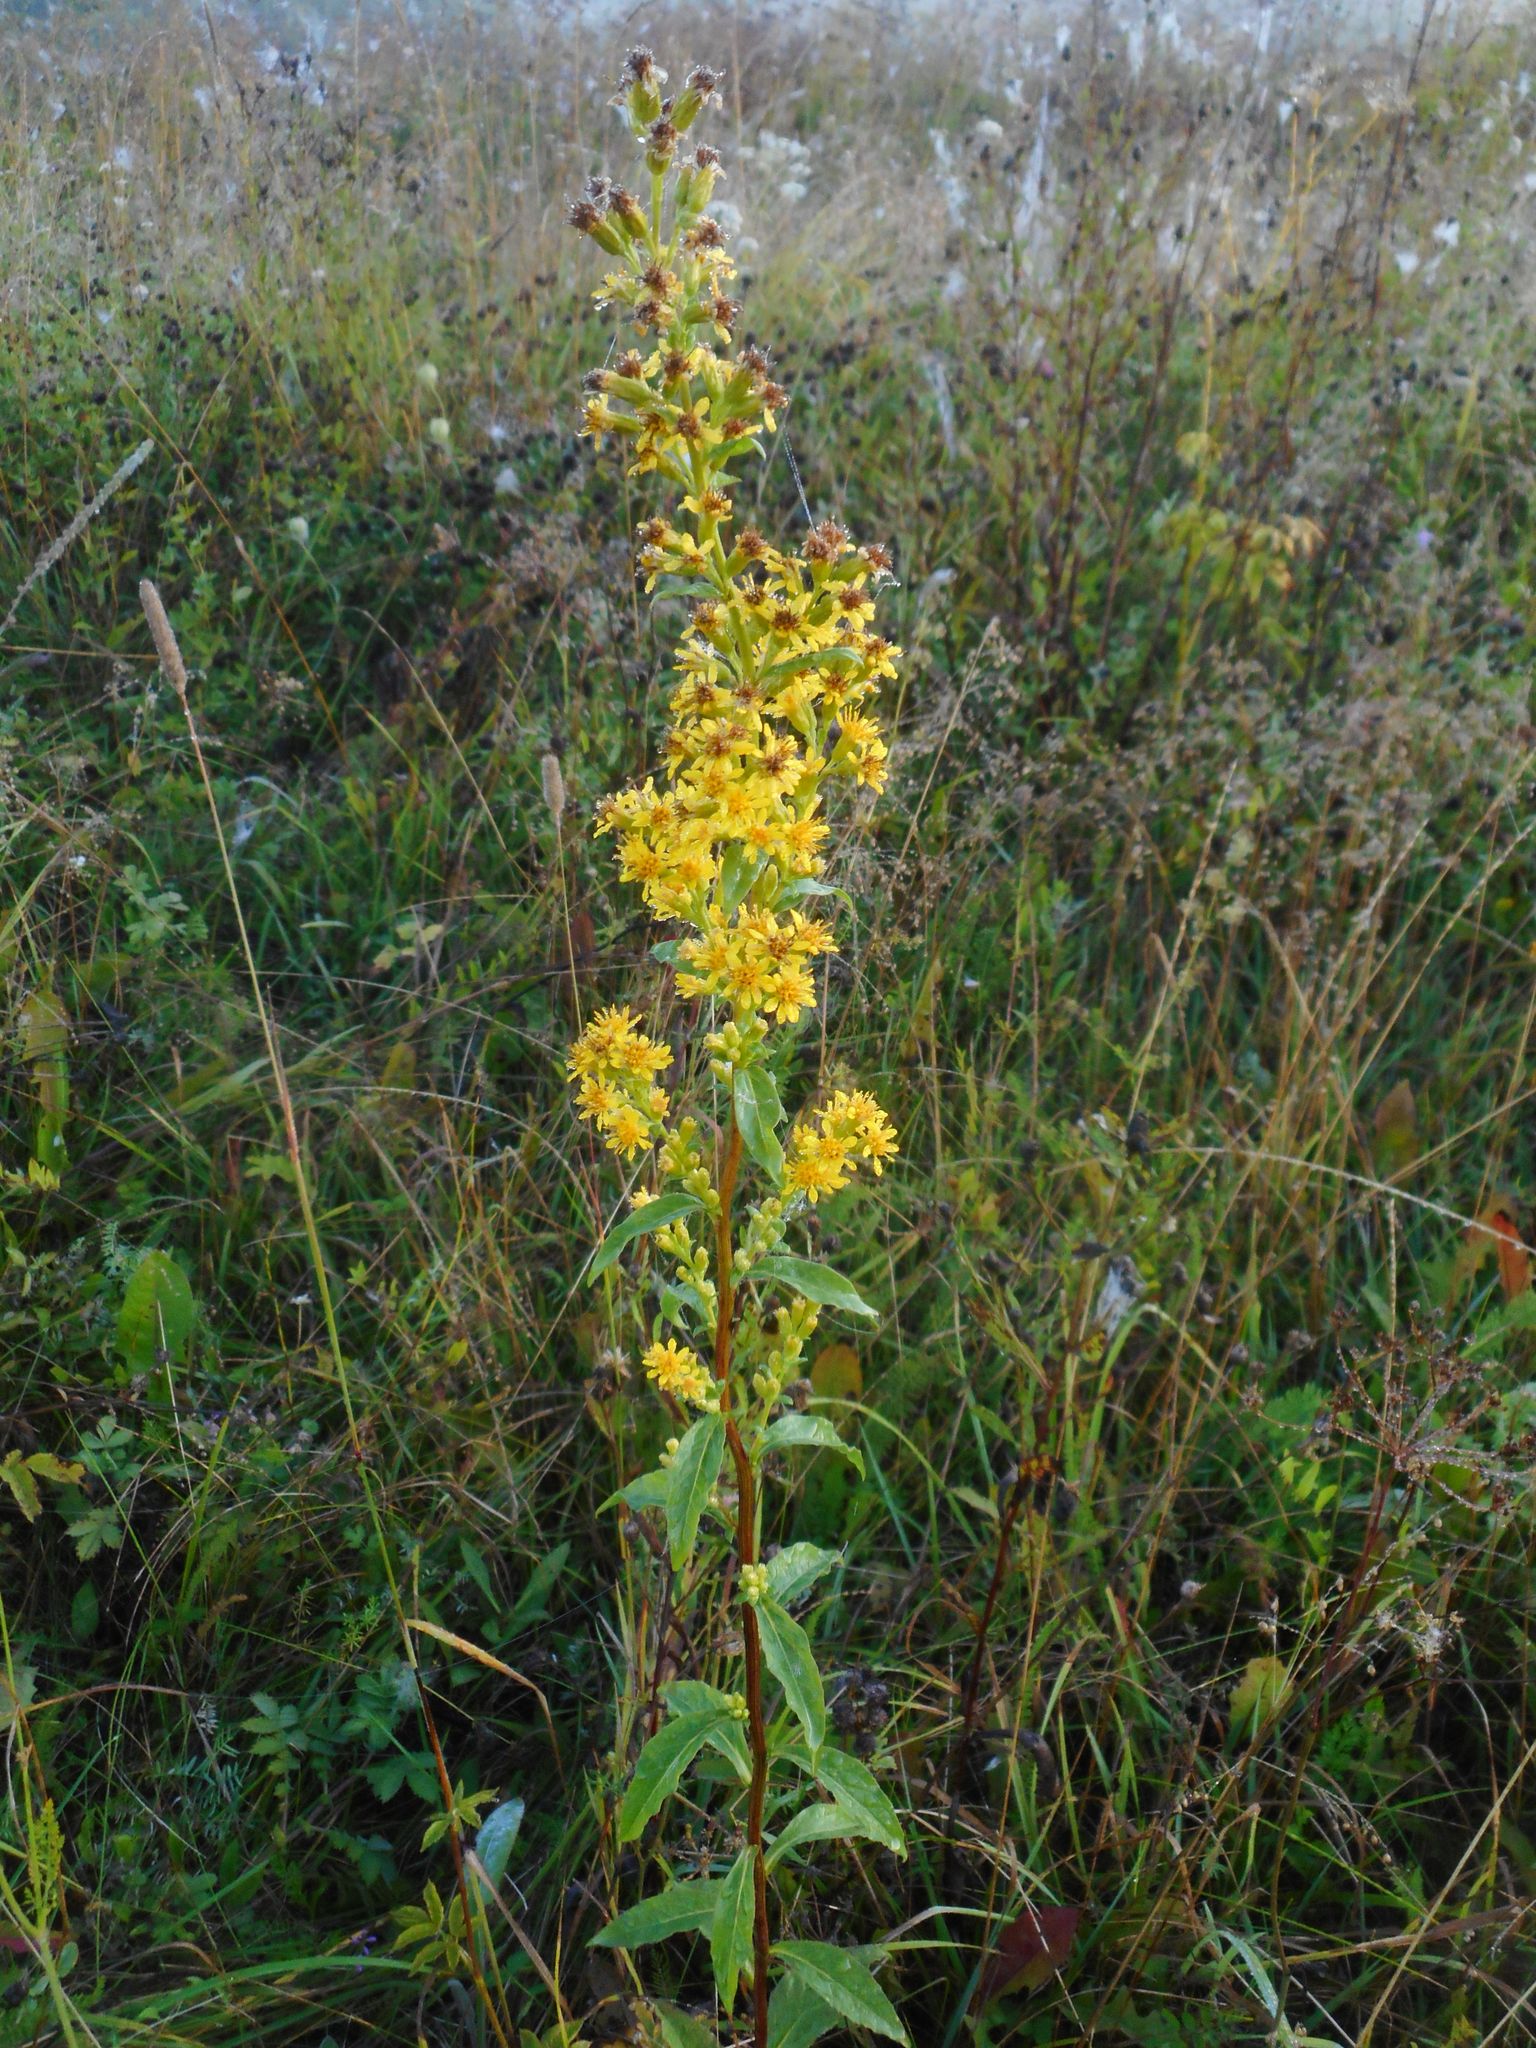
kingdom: Plantae
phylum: Tracheophyta
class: Magnoliopsida
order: Asterales
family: Asteraceae
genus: Solidago
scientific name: Solidago virgaurea
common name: Goldenrod
